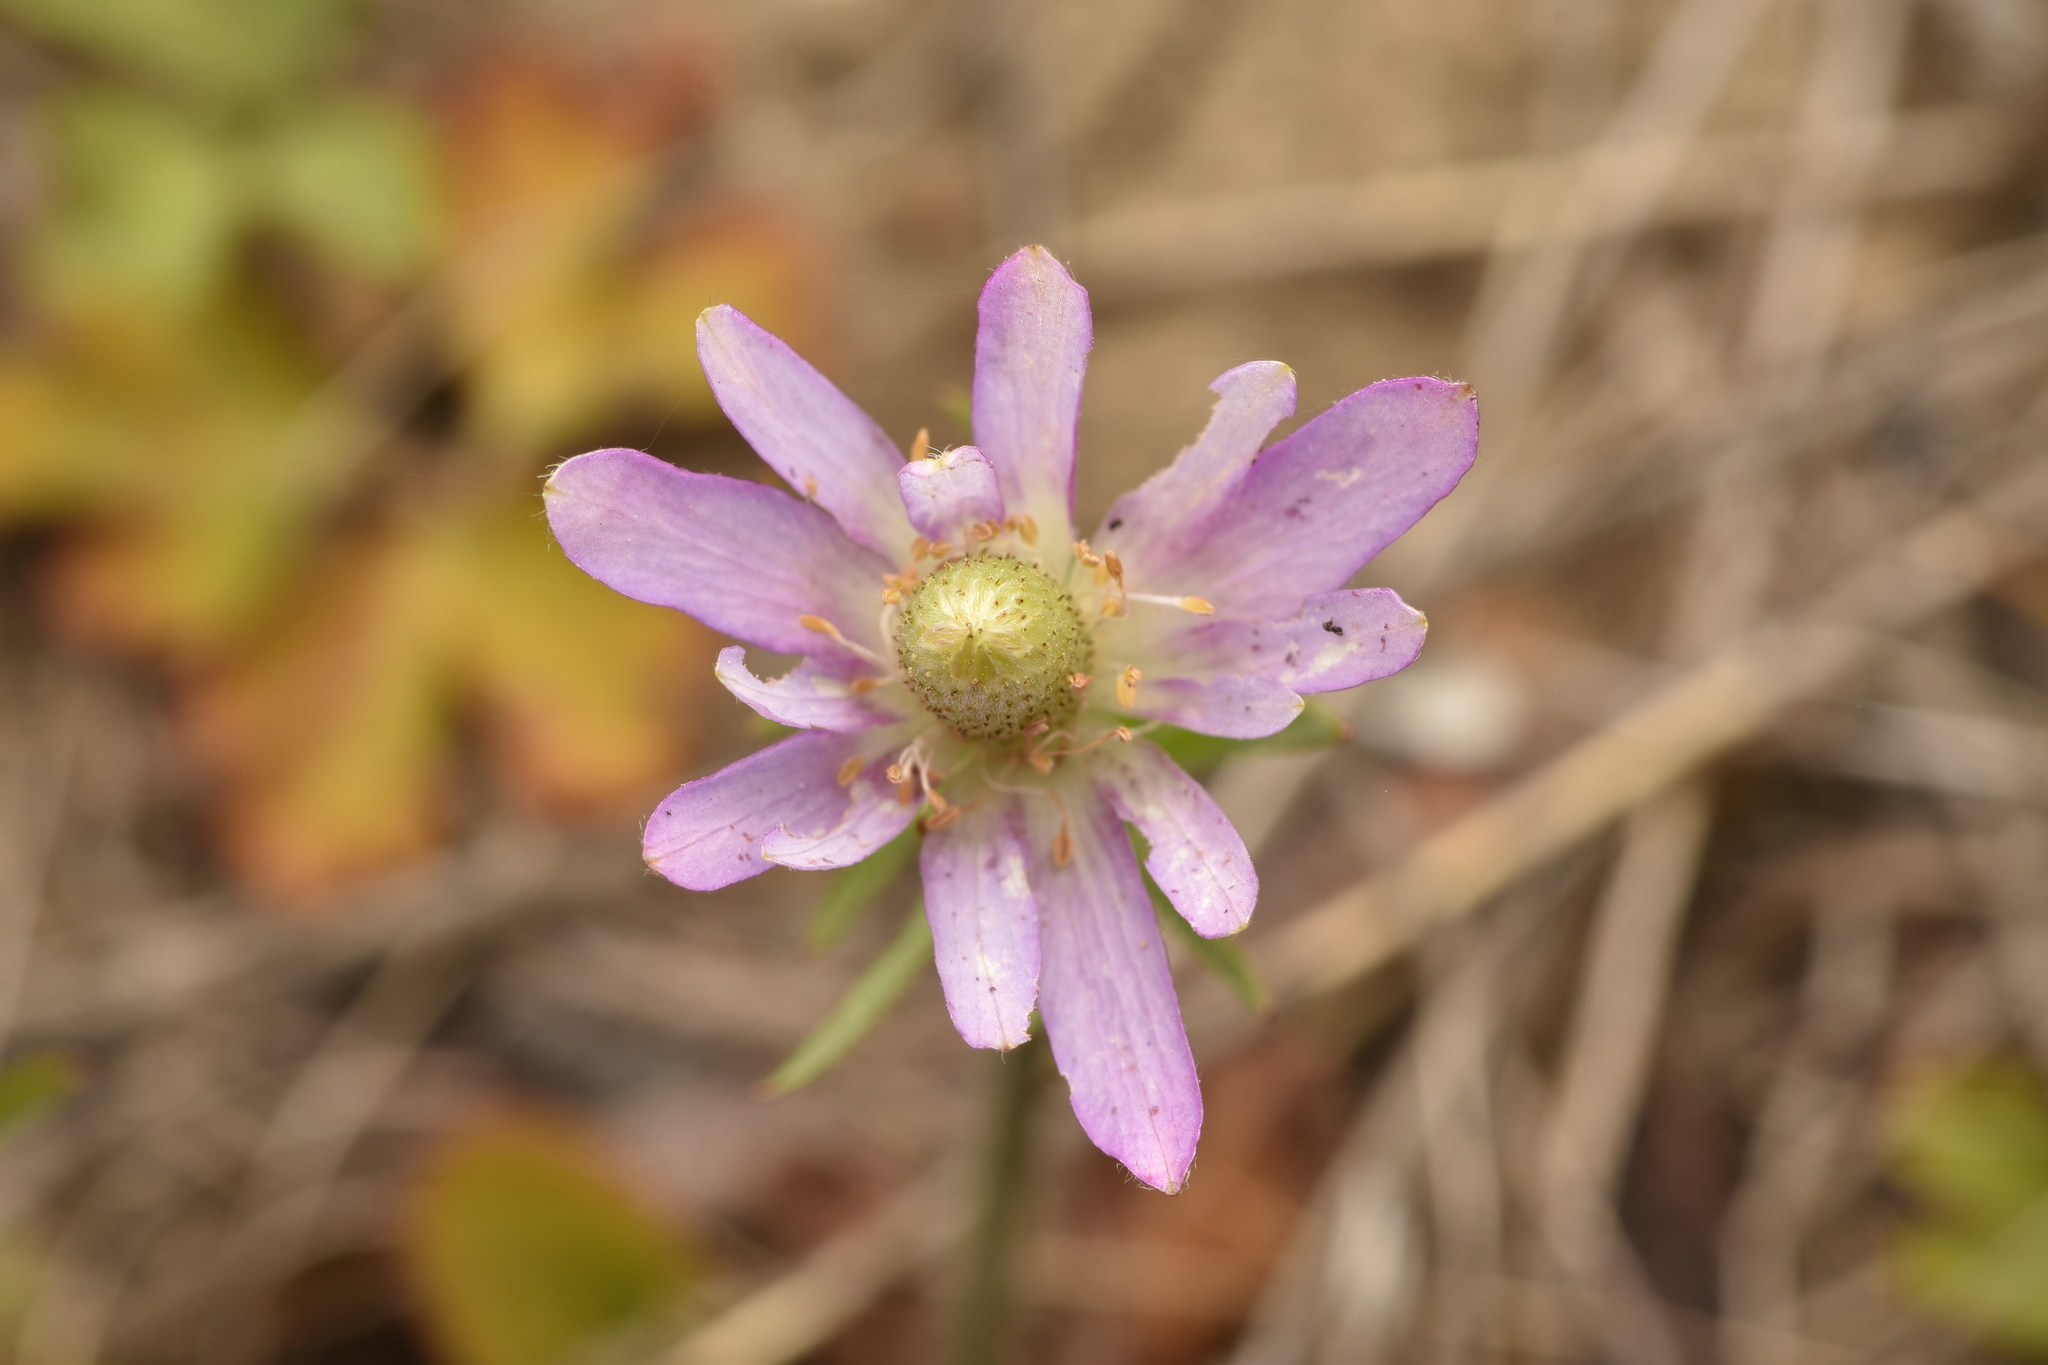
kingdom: Plantae
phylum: Tracheophyta
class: Magnoliopsida
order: Ranunculales
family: Ranunculaceae
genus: Anemone
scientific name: Anemone berlandieri
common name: Ten-petal anemone
